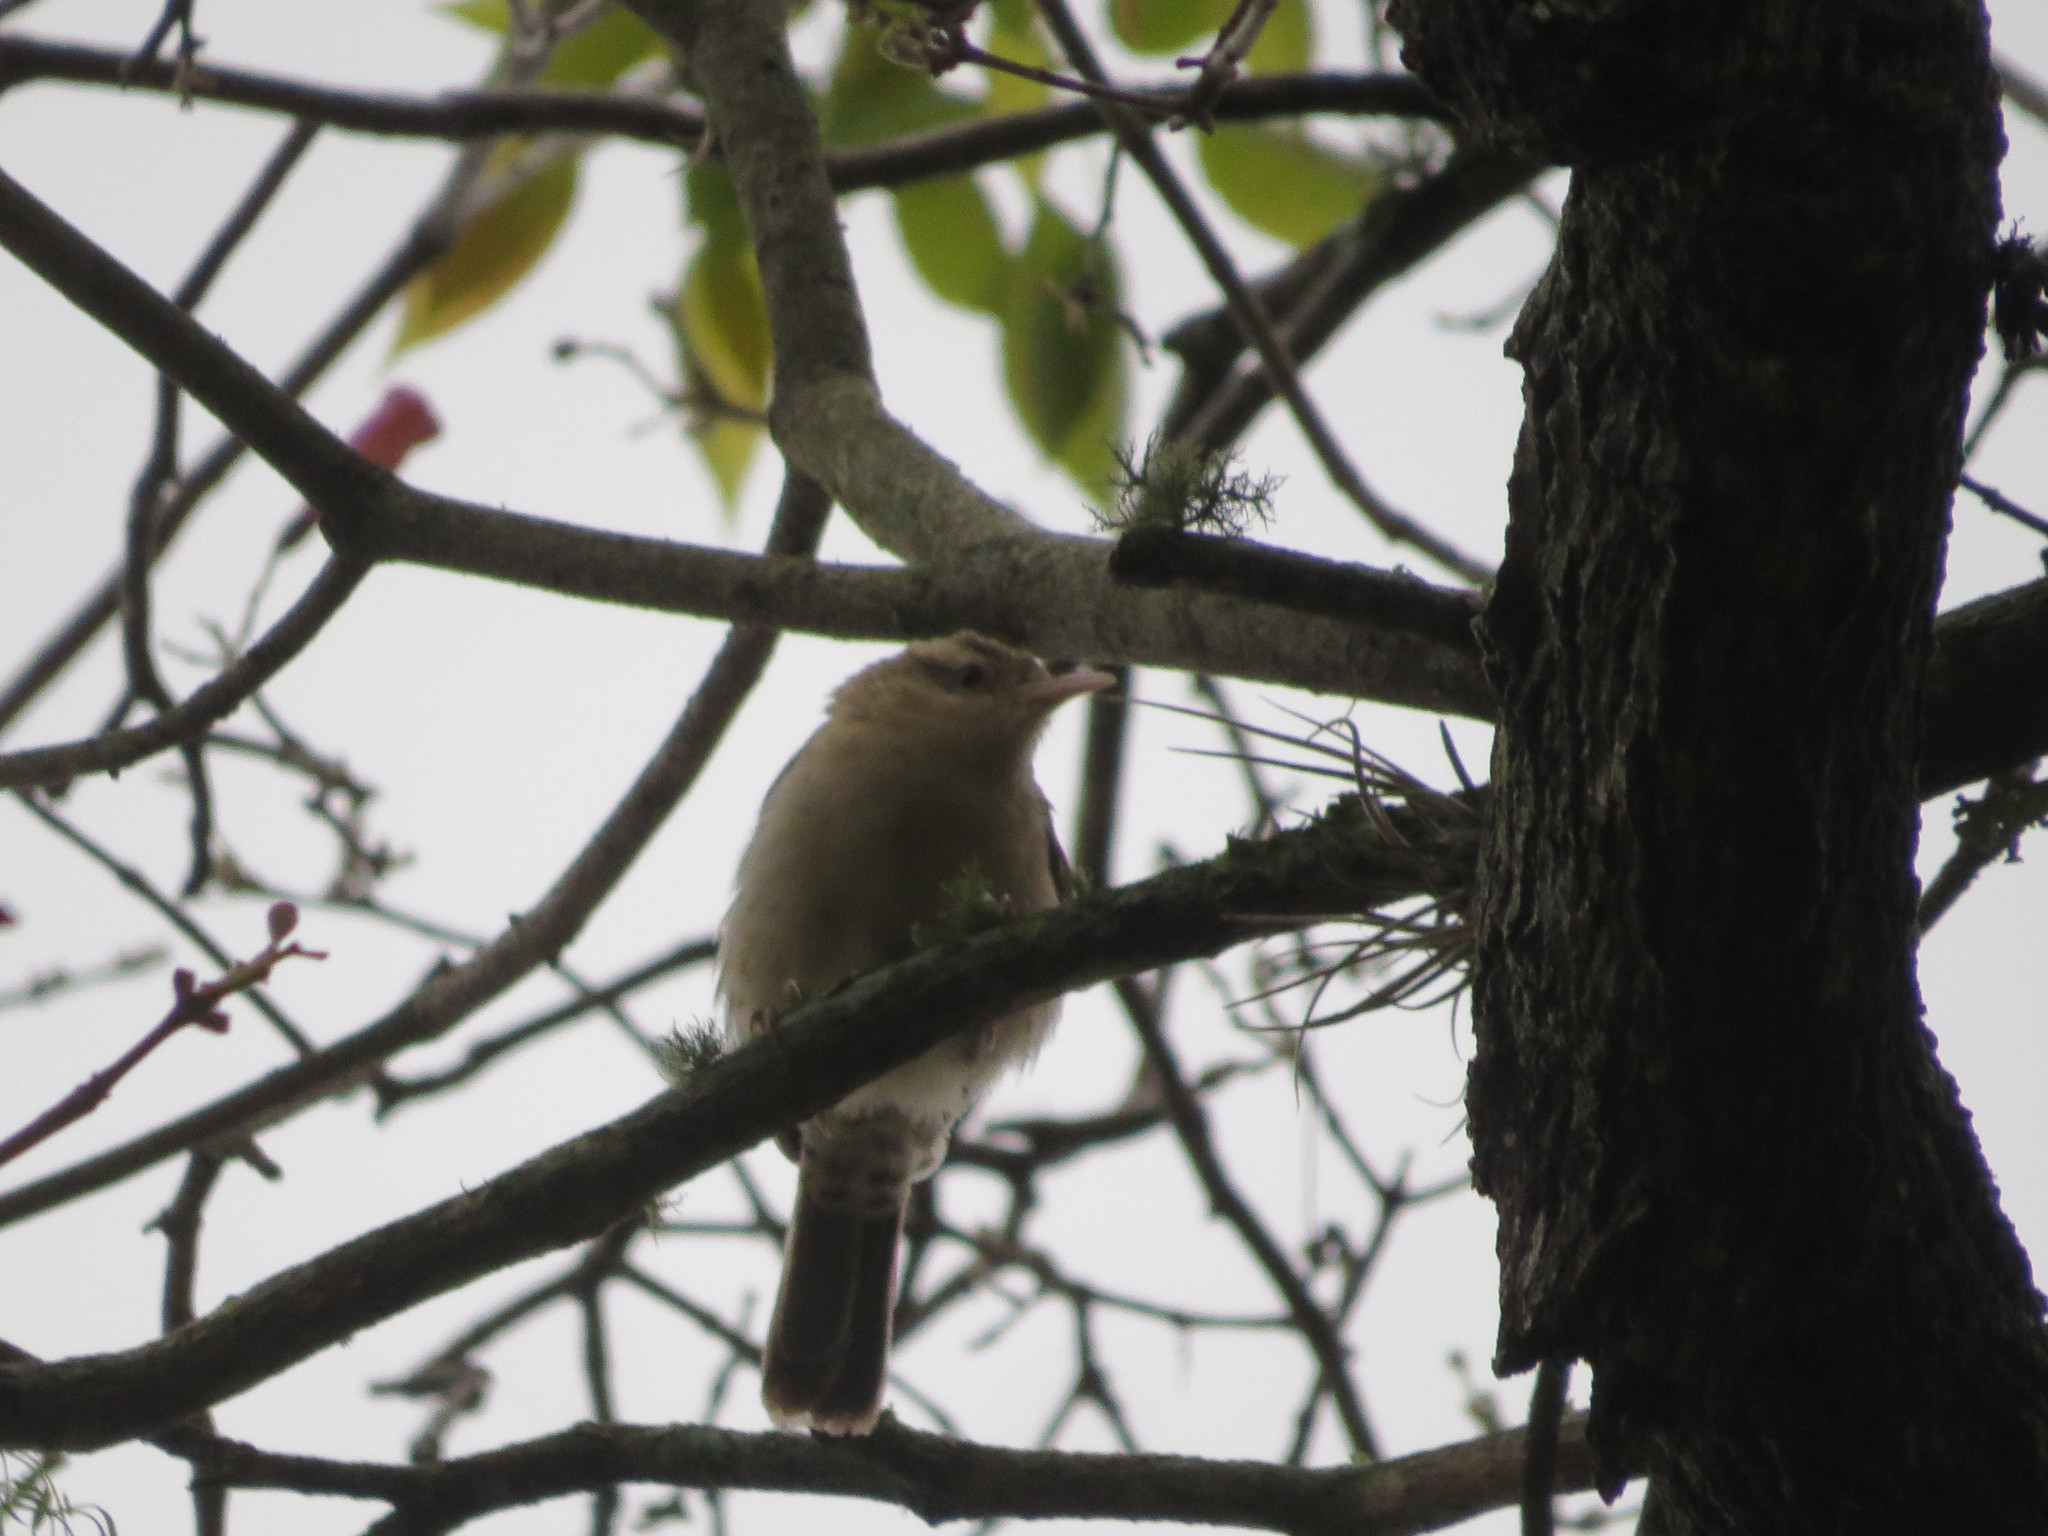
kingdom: Animalia
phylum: Chordata
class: Aves
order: Passeriformes
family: Troglodytidae
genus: Campylorhynchus
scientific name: Campylorhynchus turdinus
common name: Thrush-like wren
